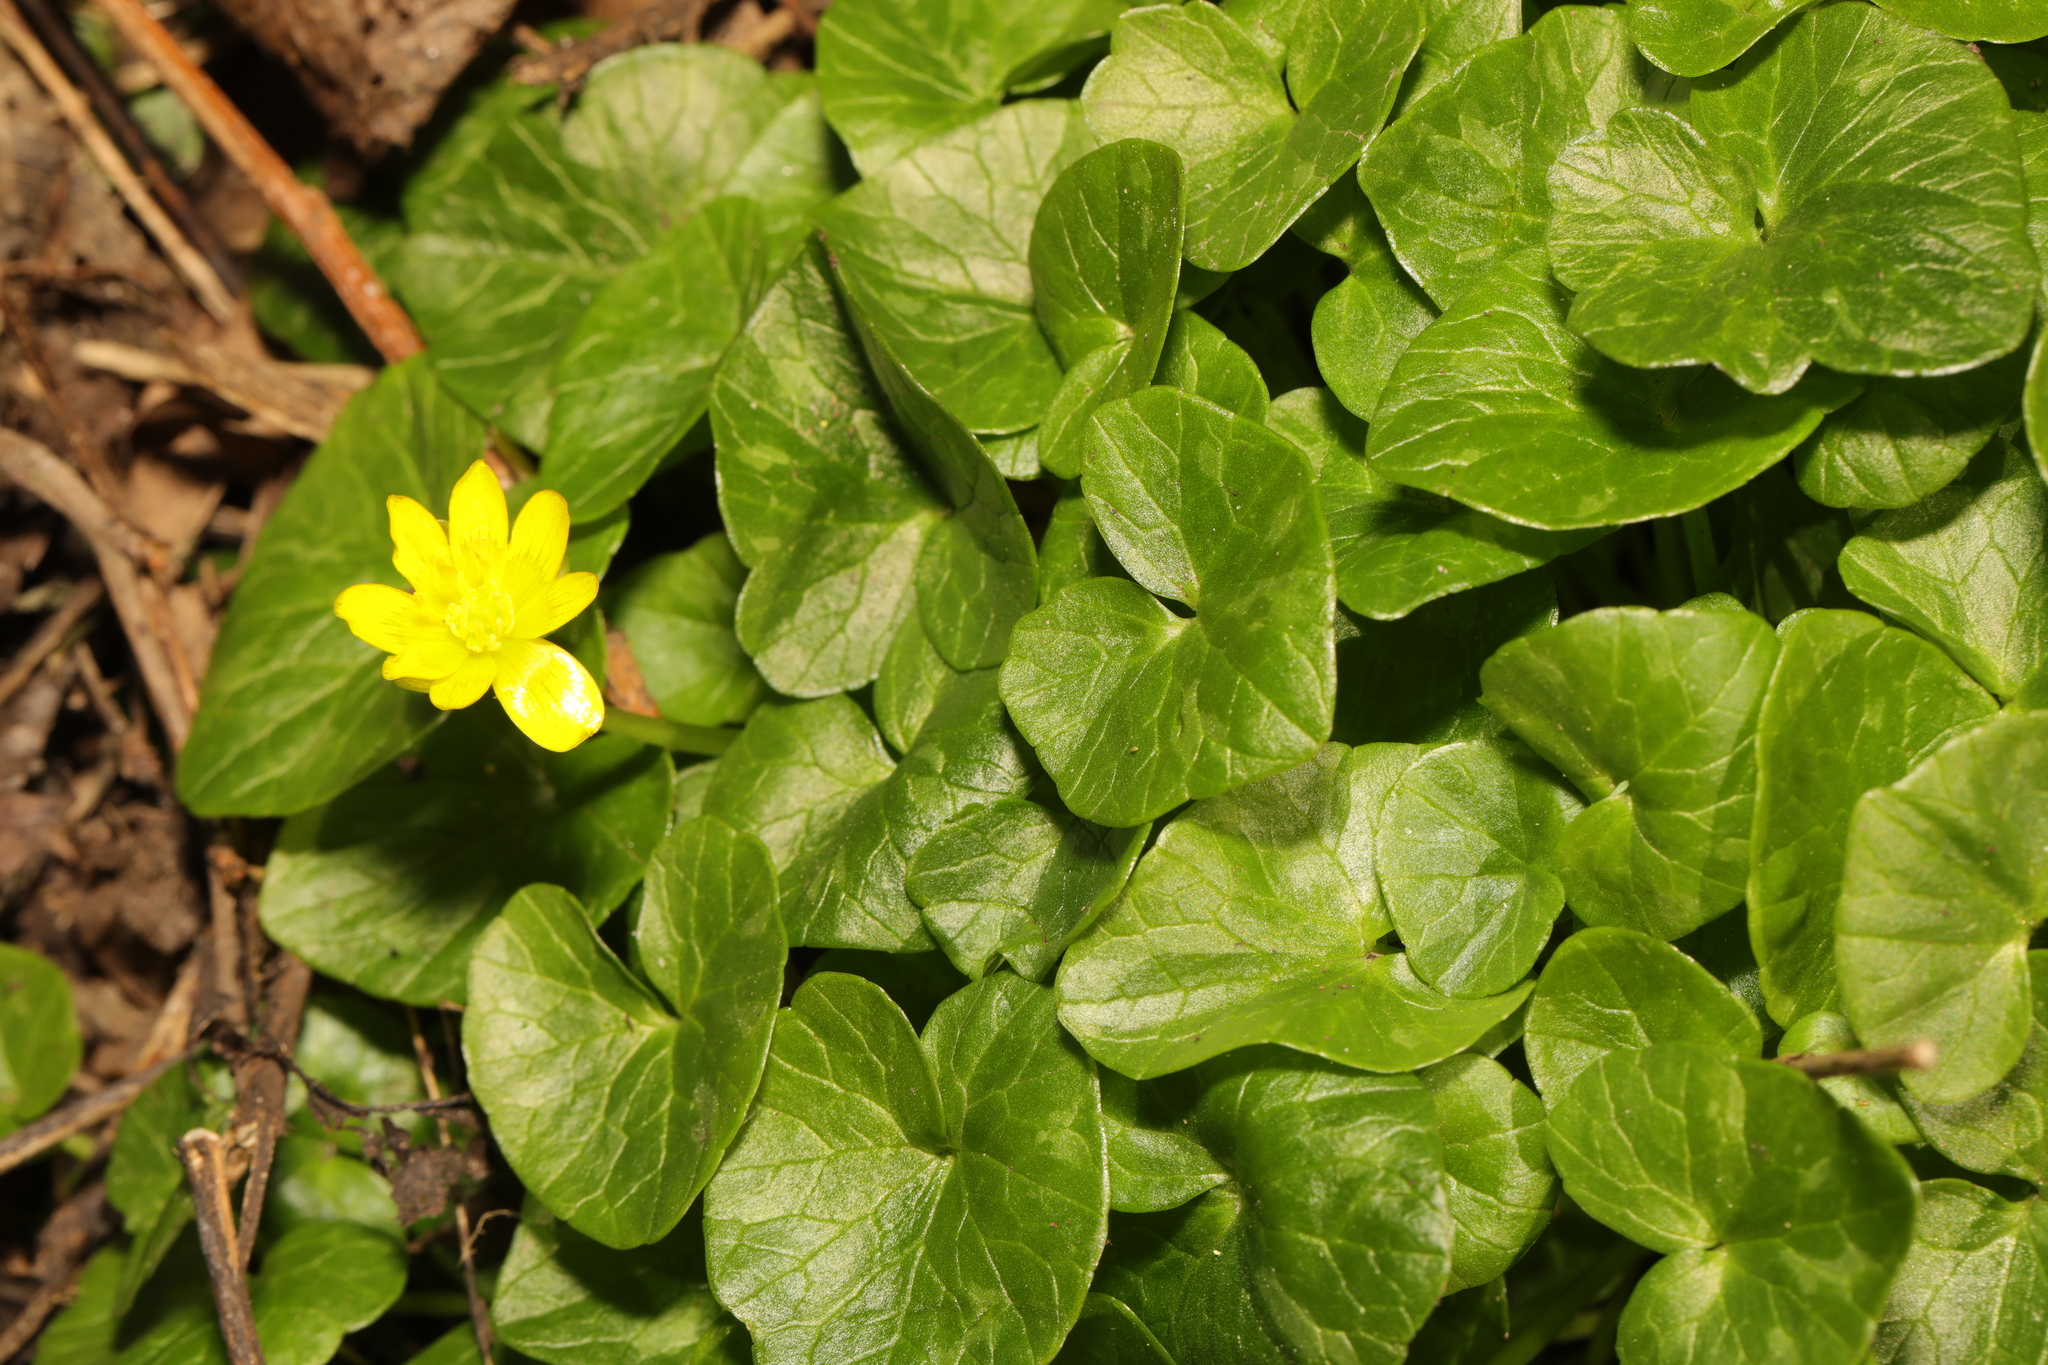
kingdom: Plantae
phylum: Tracheophyta
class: Magnoliopsida
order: Ranunculales
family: Ranunculaceae
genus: Ficaria
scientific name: Ficaria verna
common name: Lesser celandine
